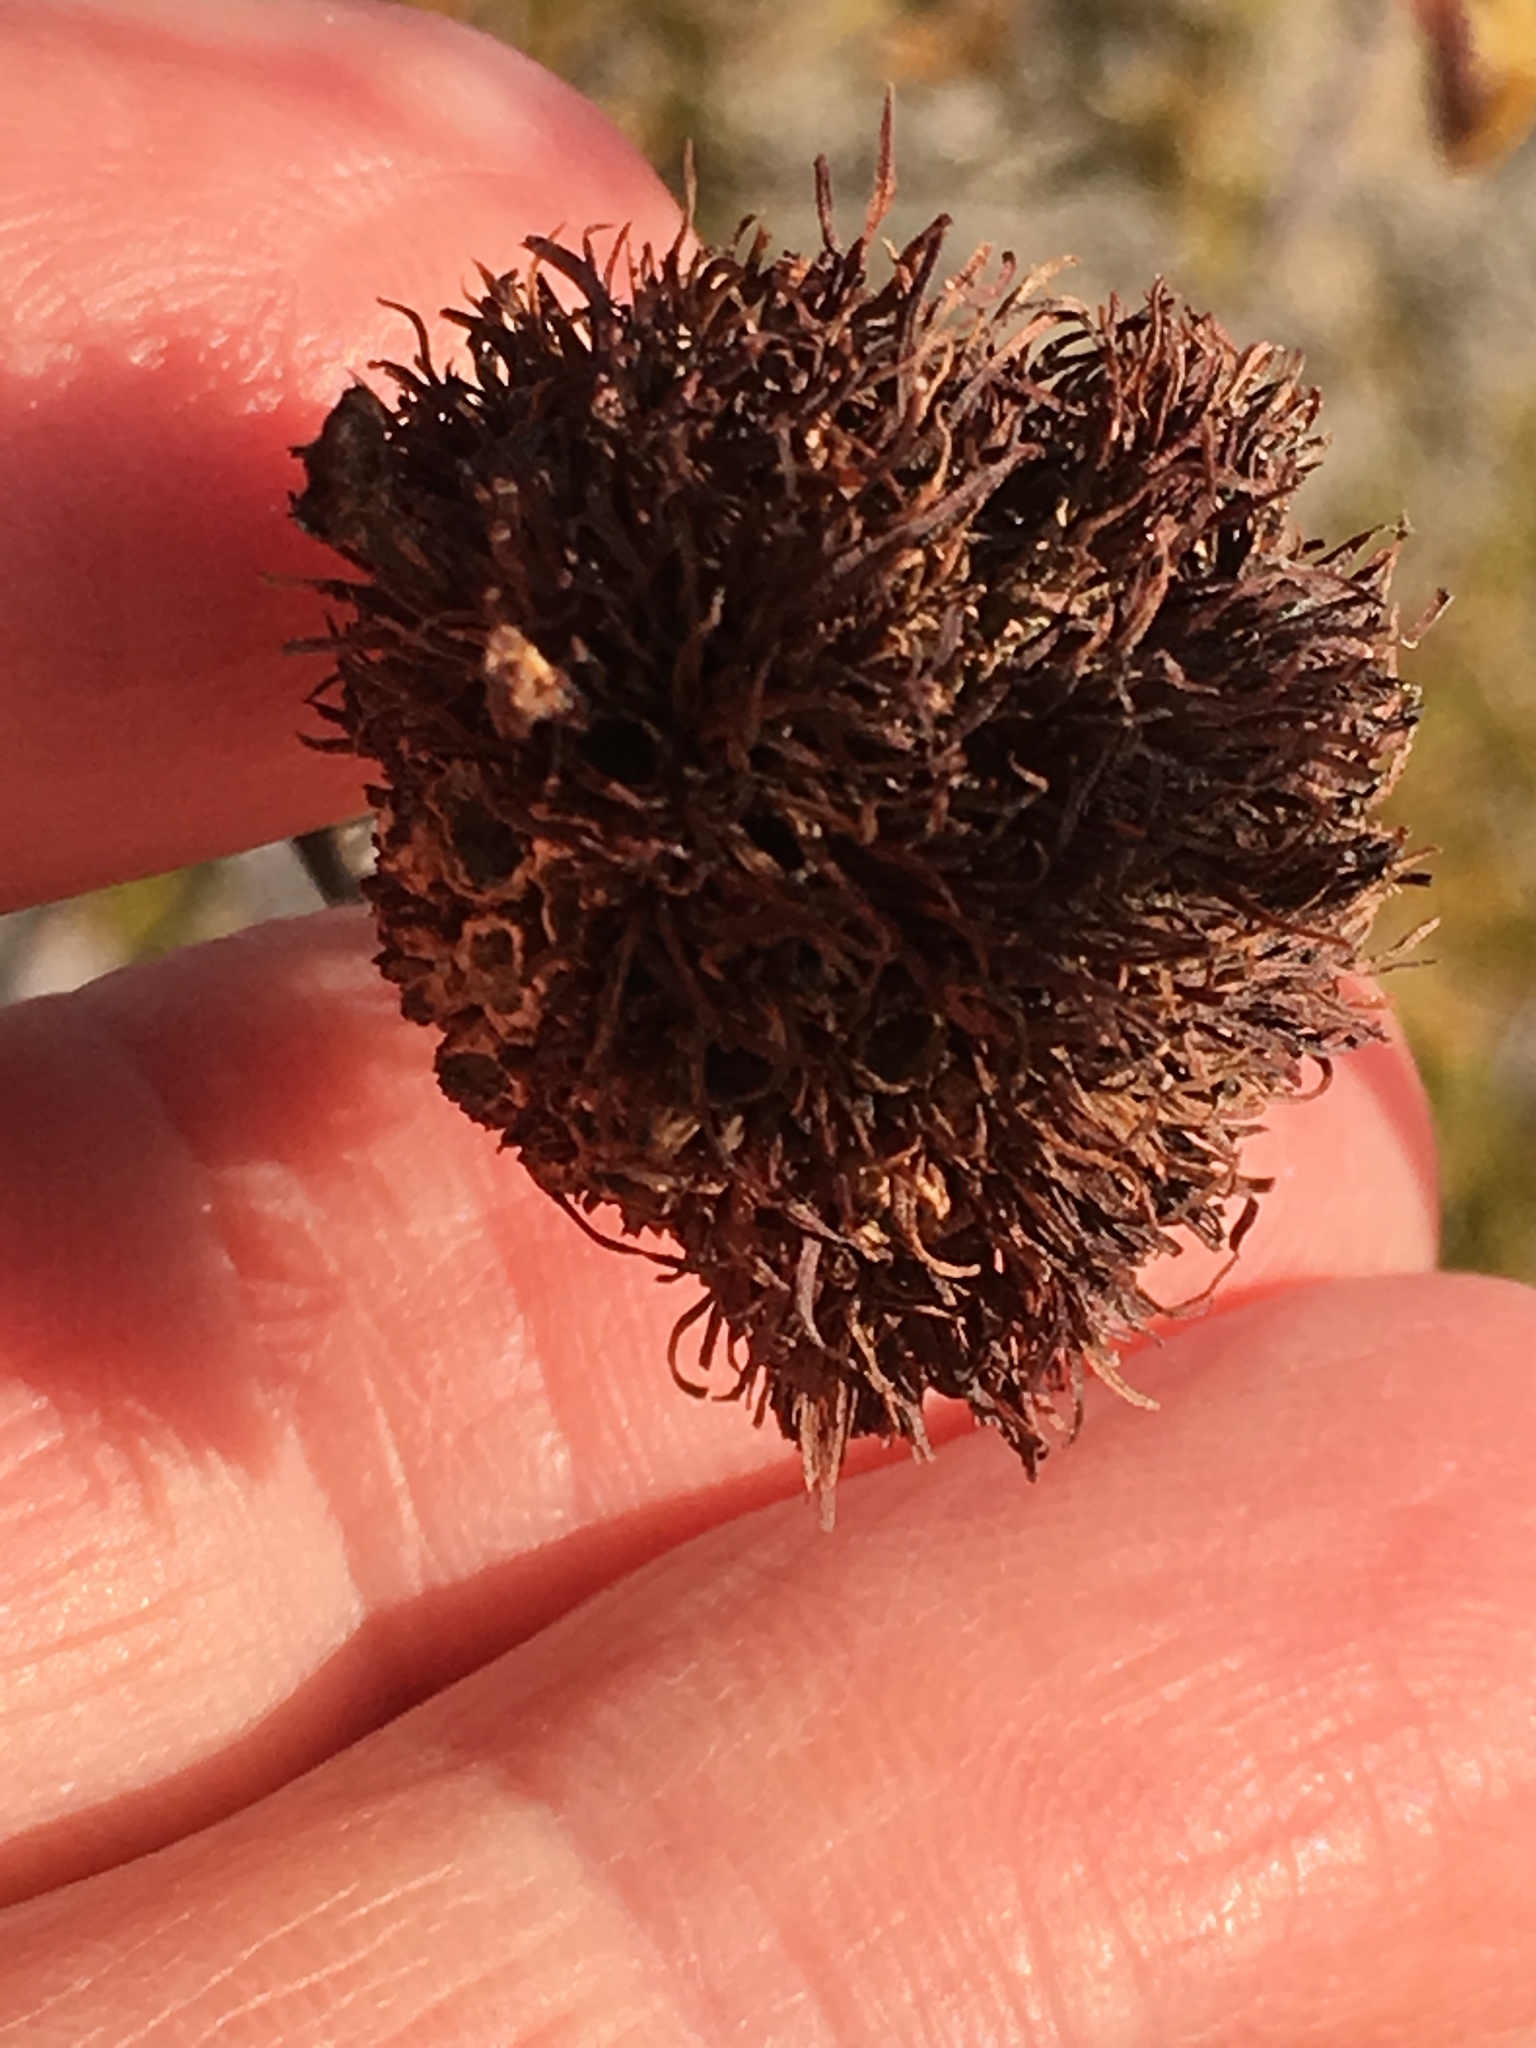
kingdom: Plantae
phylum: Tracheophyta
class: Magnoliopsida
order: Zygophyllales
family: Zygophyllaceae
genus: Larrea
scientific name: Larrea tridentata
